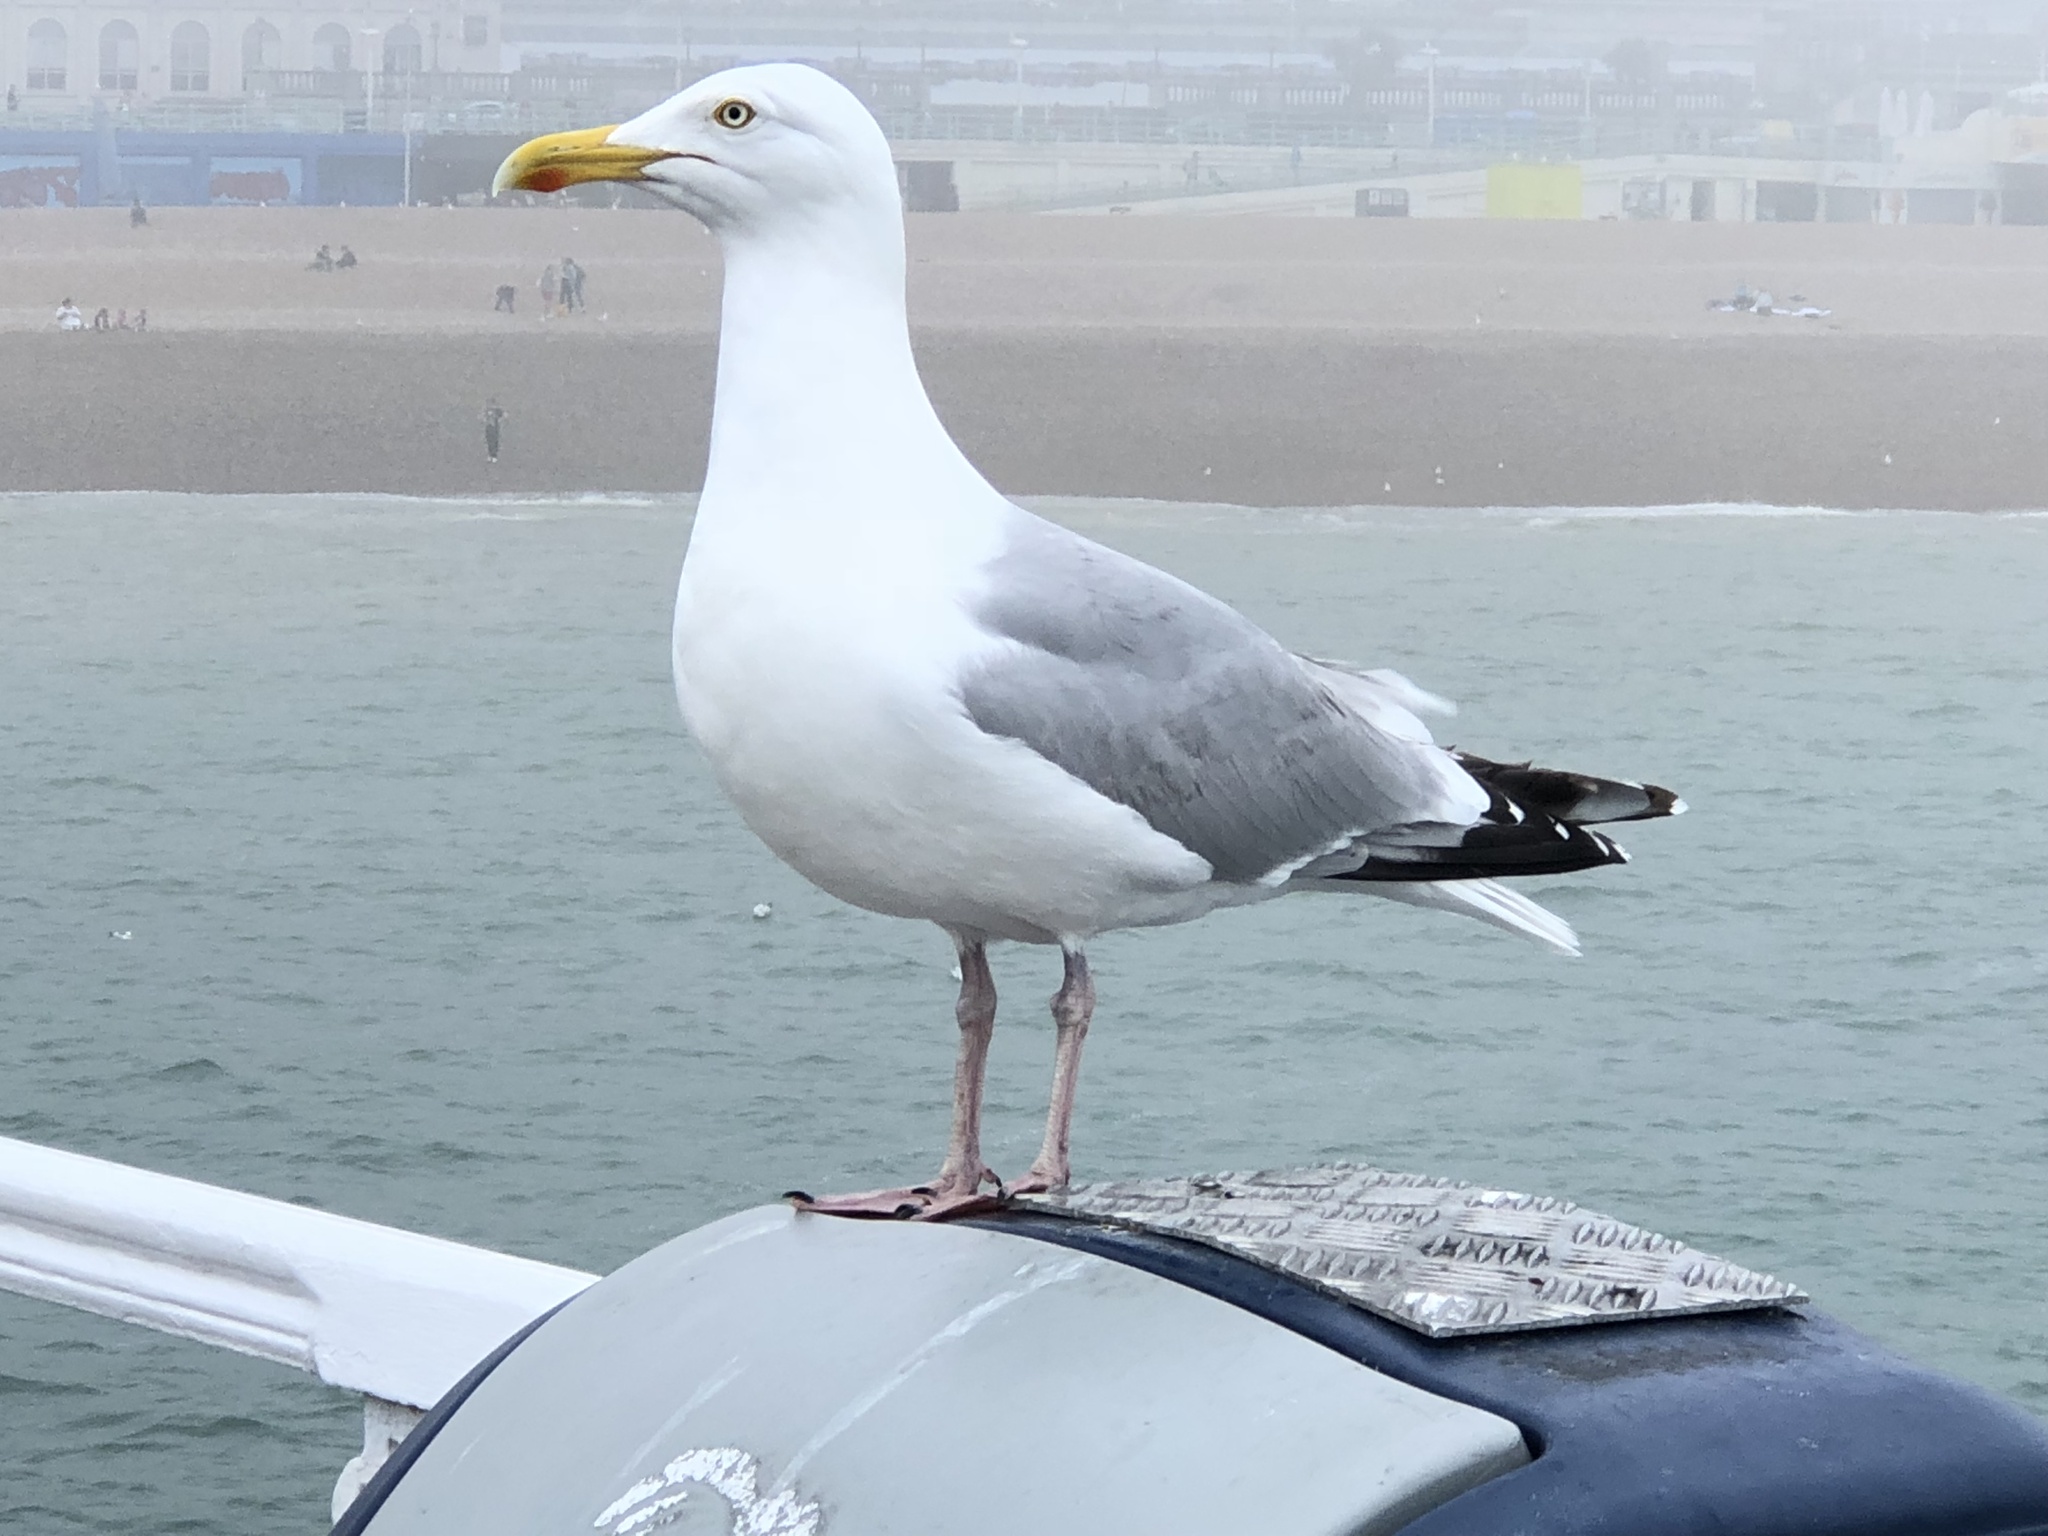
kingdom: Animalia
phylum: Chordata
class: Aves
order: Charadriiformes
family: Laridae
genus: Larus
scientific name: Larus argentatus
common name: Herring gull
